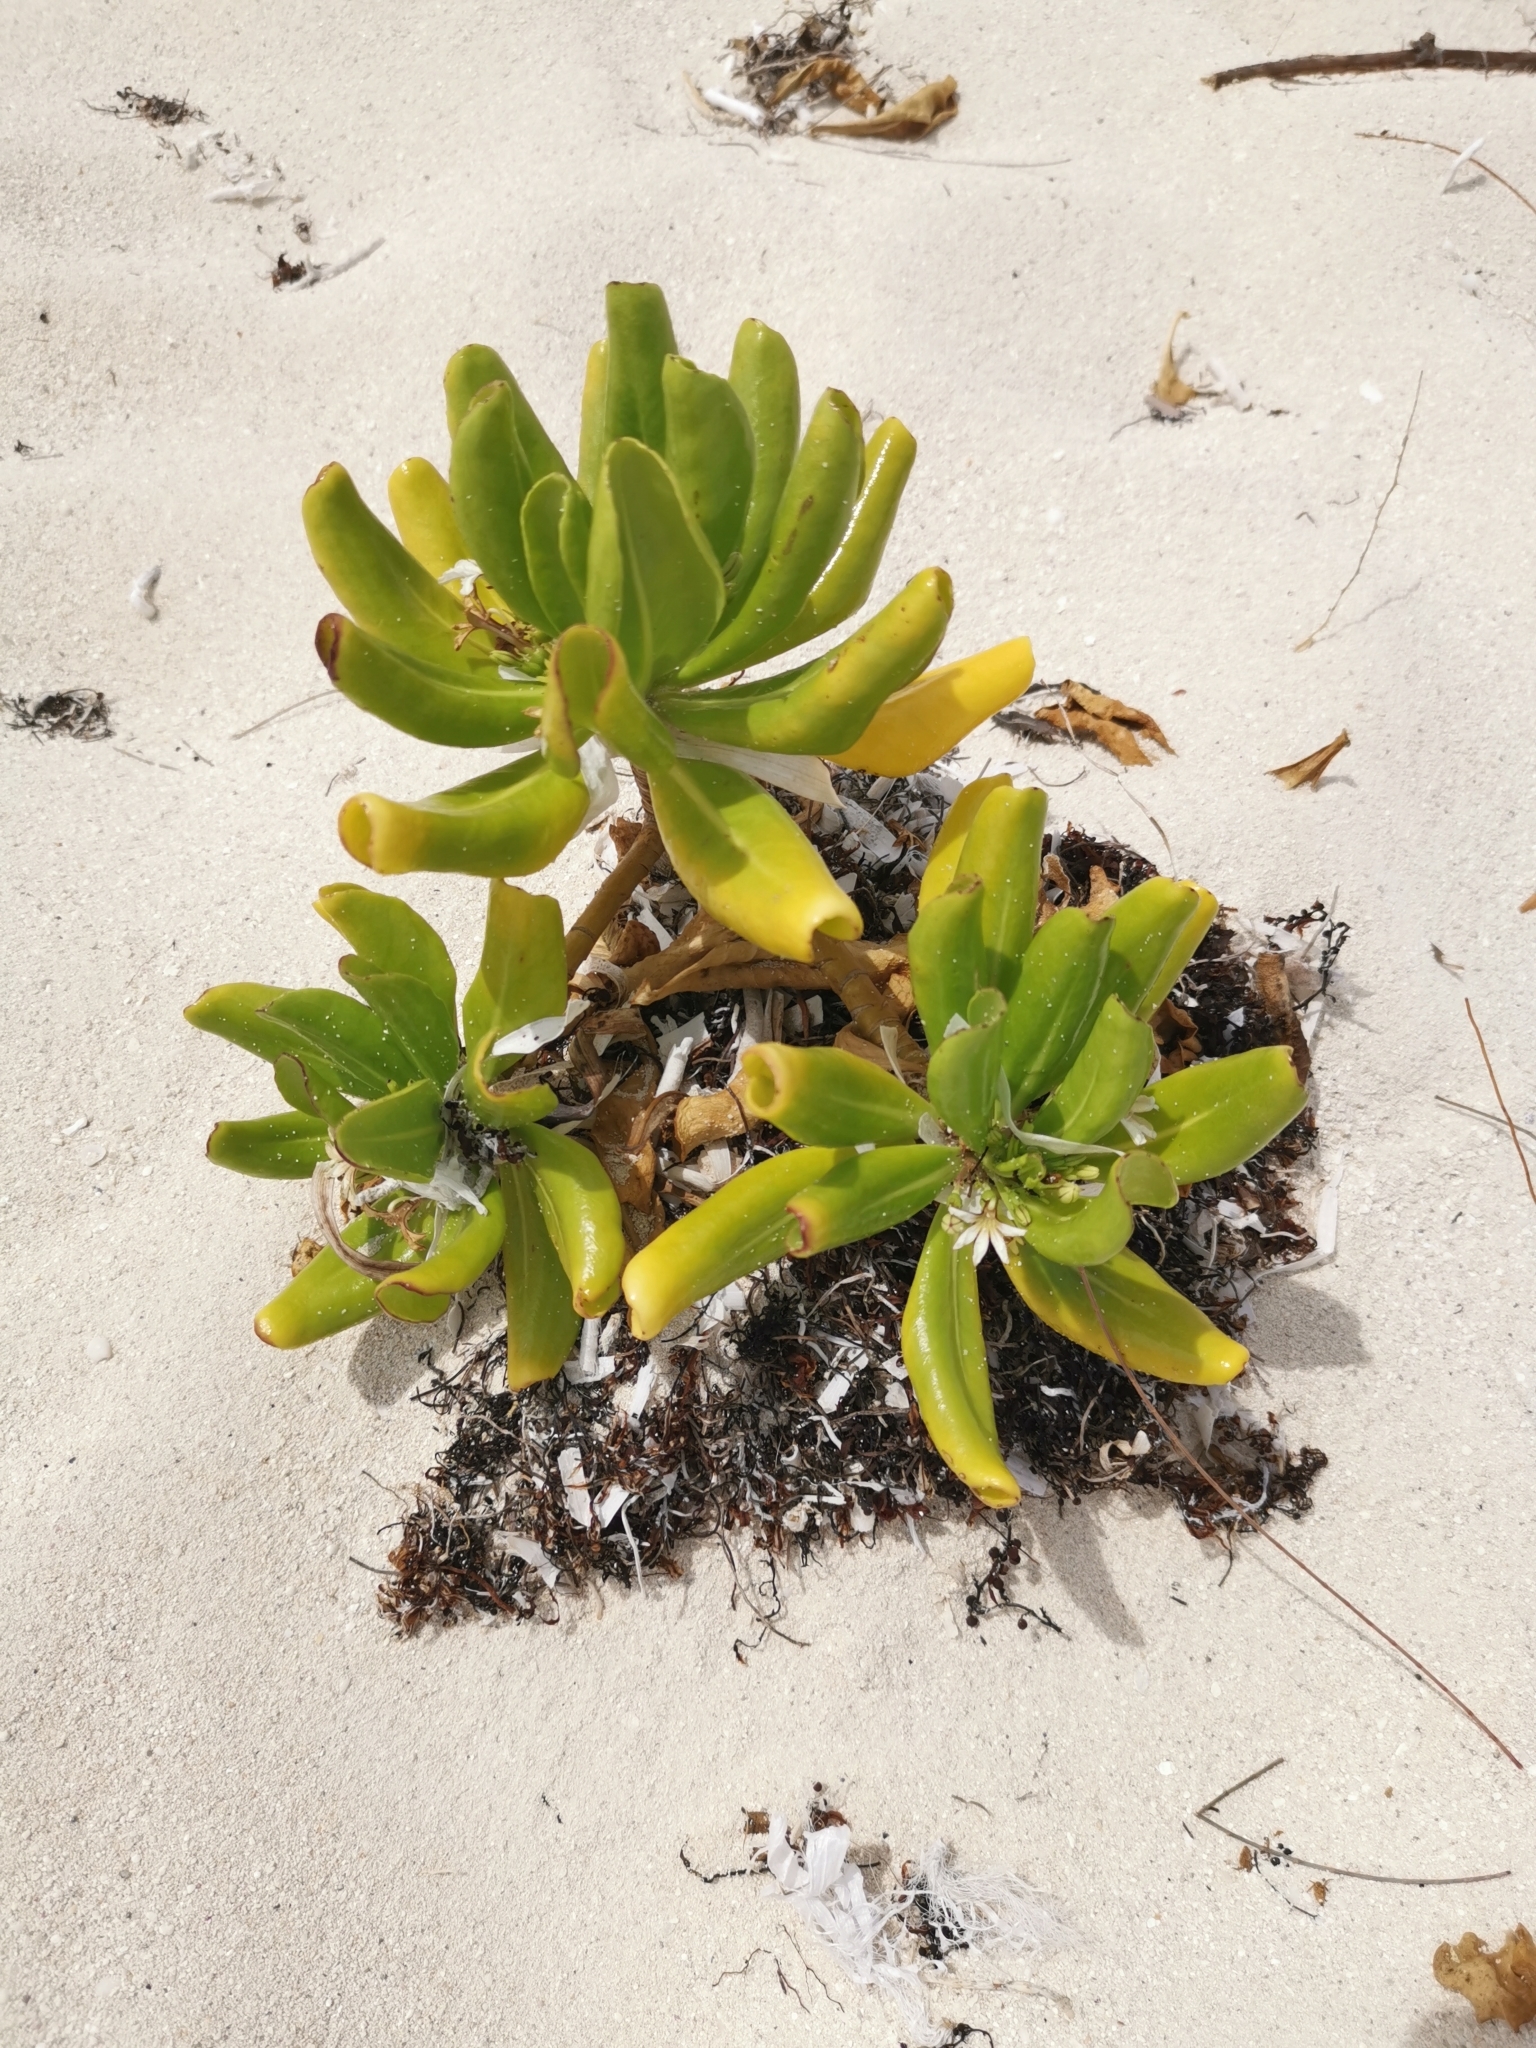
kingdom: Plantae
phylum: Tracheophyta
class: Magnoliopsida
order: Asterales
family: Goodeniaceae
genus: Scaevola
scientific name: Scaevola taccada
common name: Sea lettucetree
